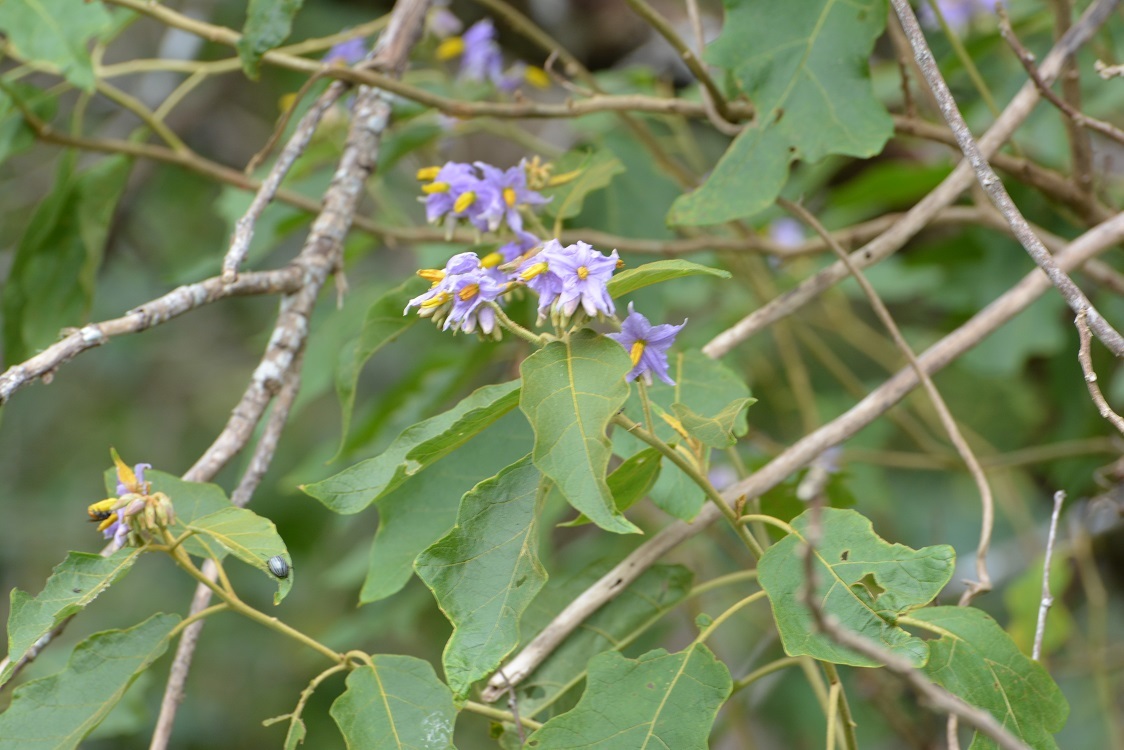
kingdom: Plantae
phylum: Tracheophyta
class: Magnoliopsida
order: Solanales
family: Solanaceae
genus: Solanum
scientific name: Solanum lanceolatum
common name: Orangeberry nightshade
